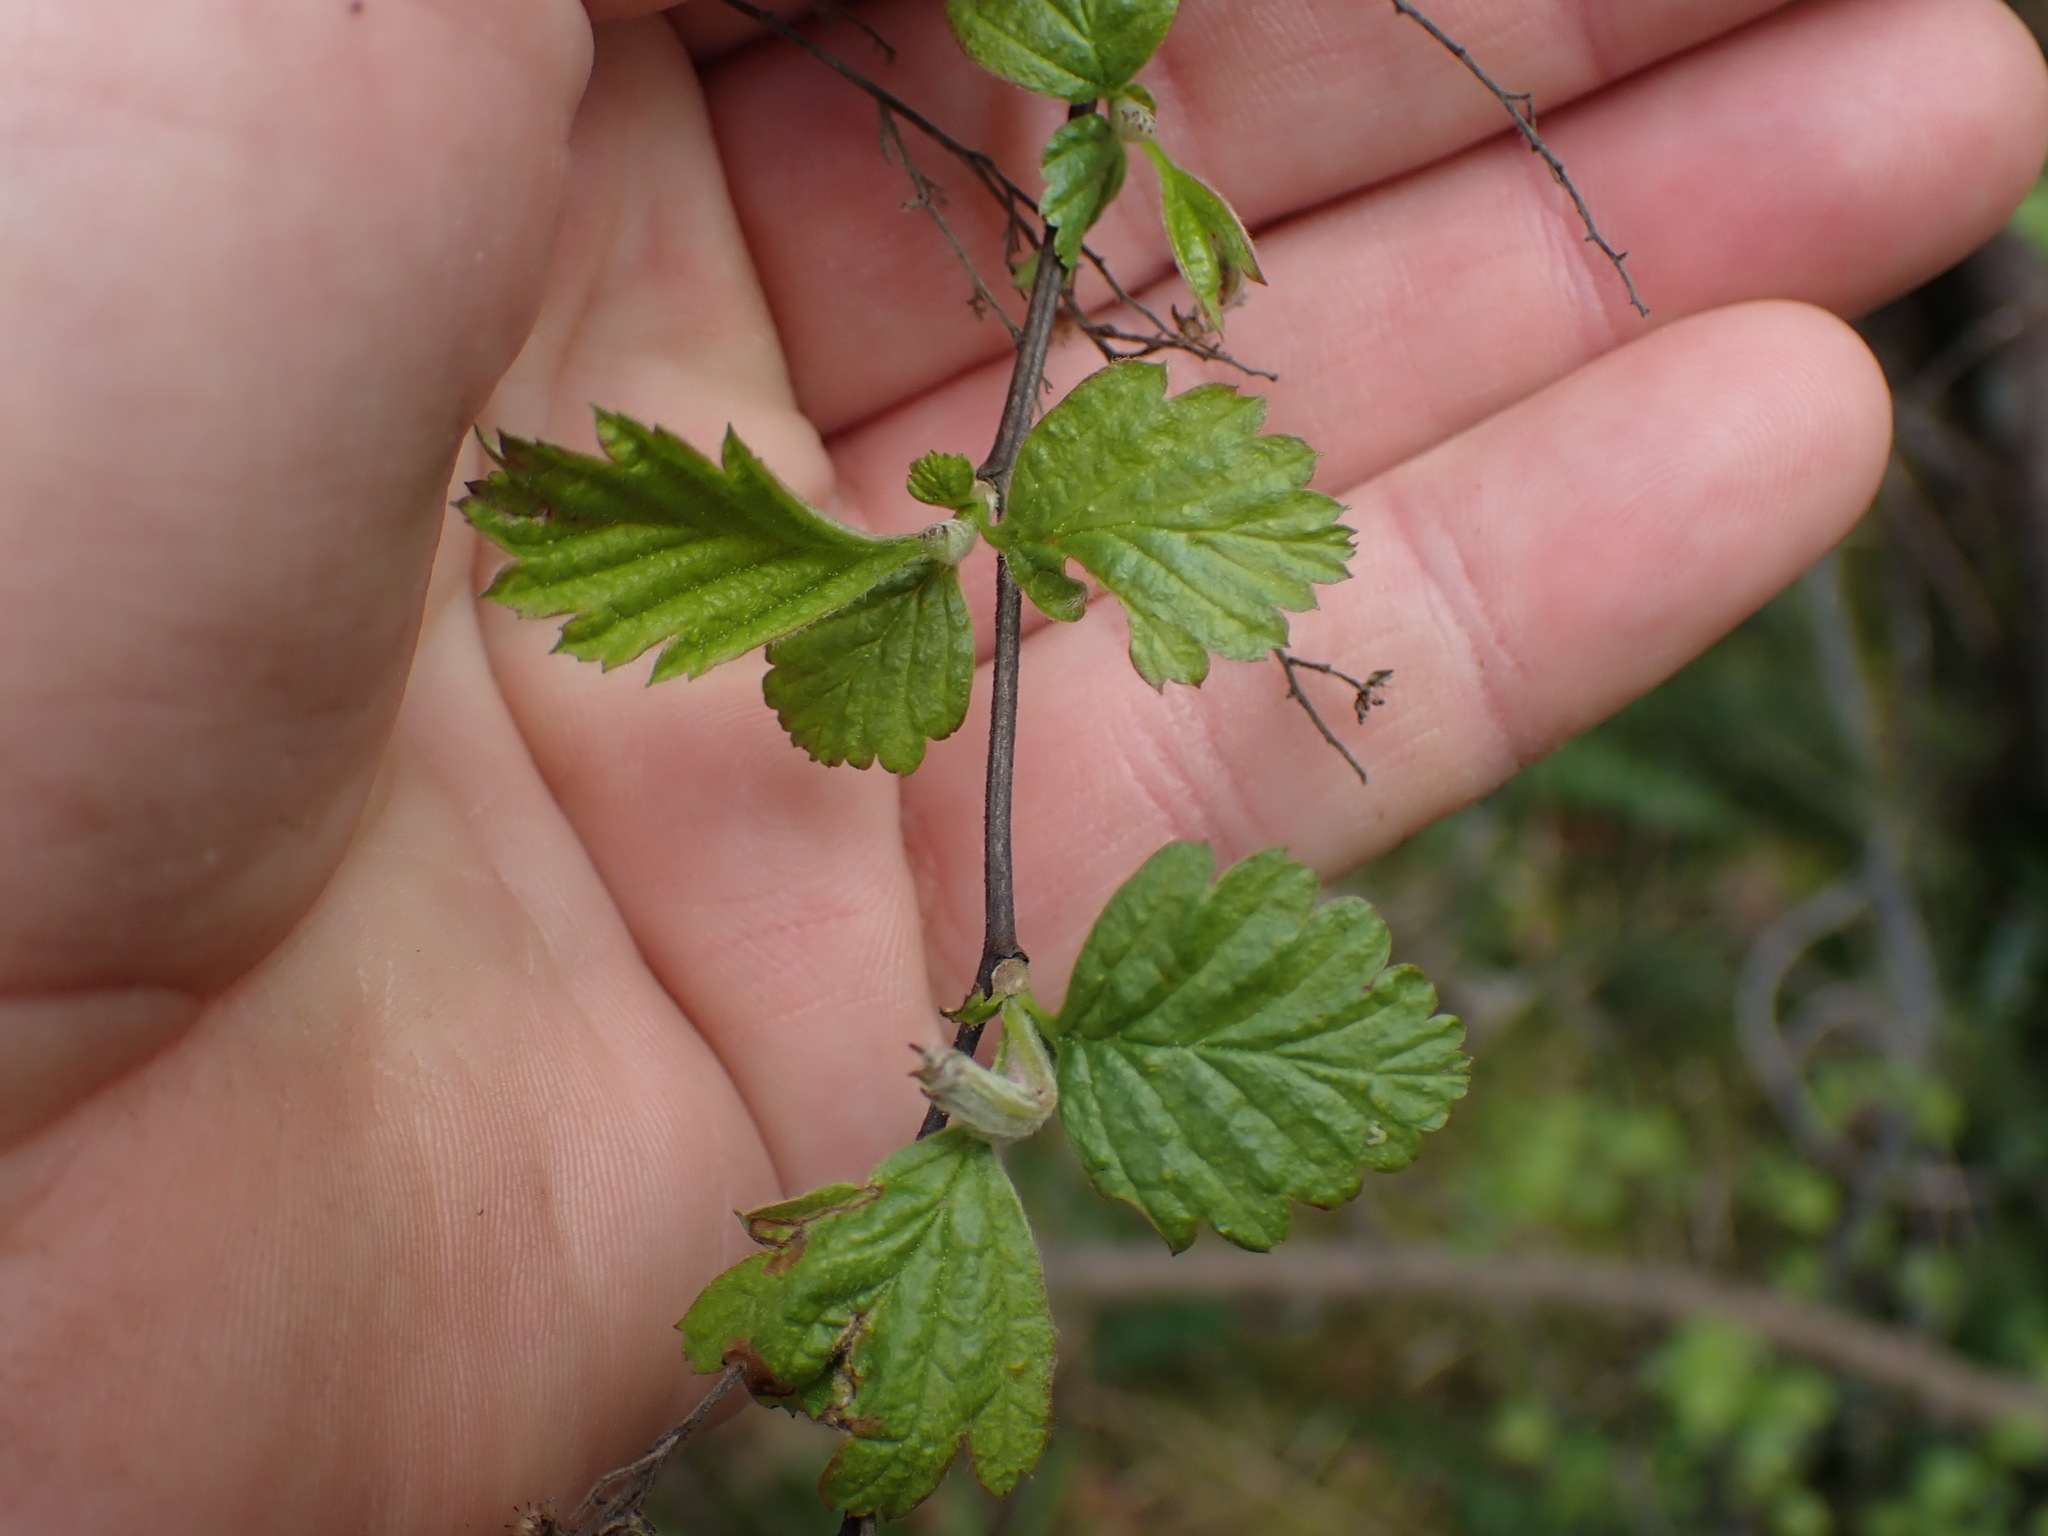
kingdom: Plantae
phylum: Tracheophyta
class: Magnoliopsida
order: Rosales
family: Rosaceae
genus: Holodiscus
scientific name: Holodiscus discolor
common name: Oceanspray
